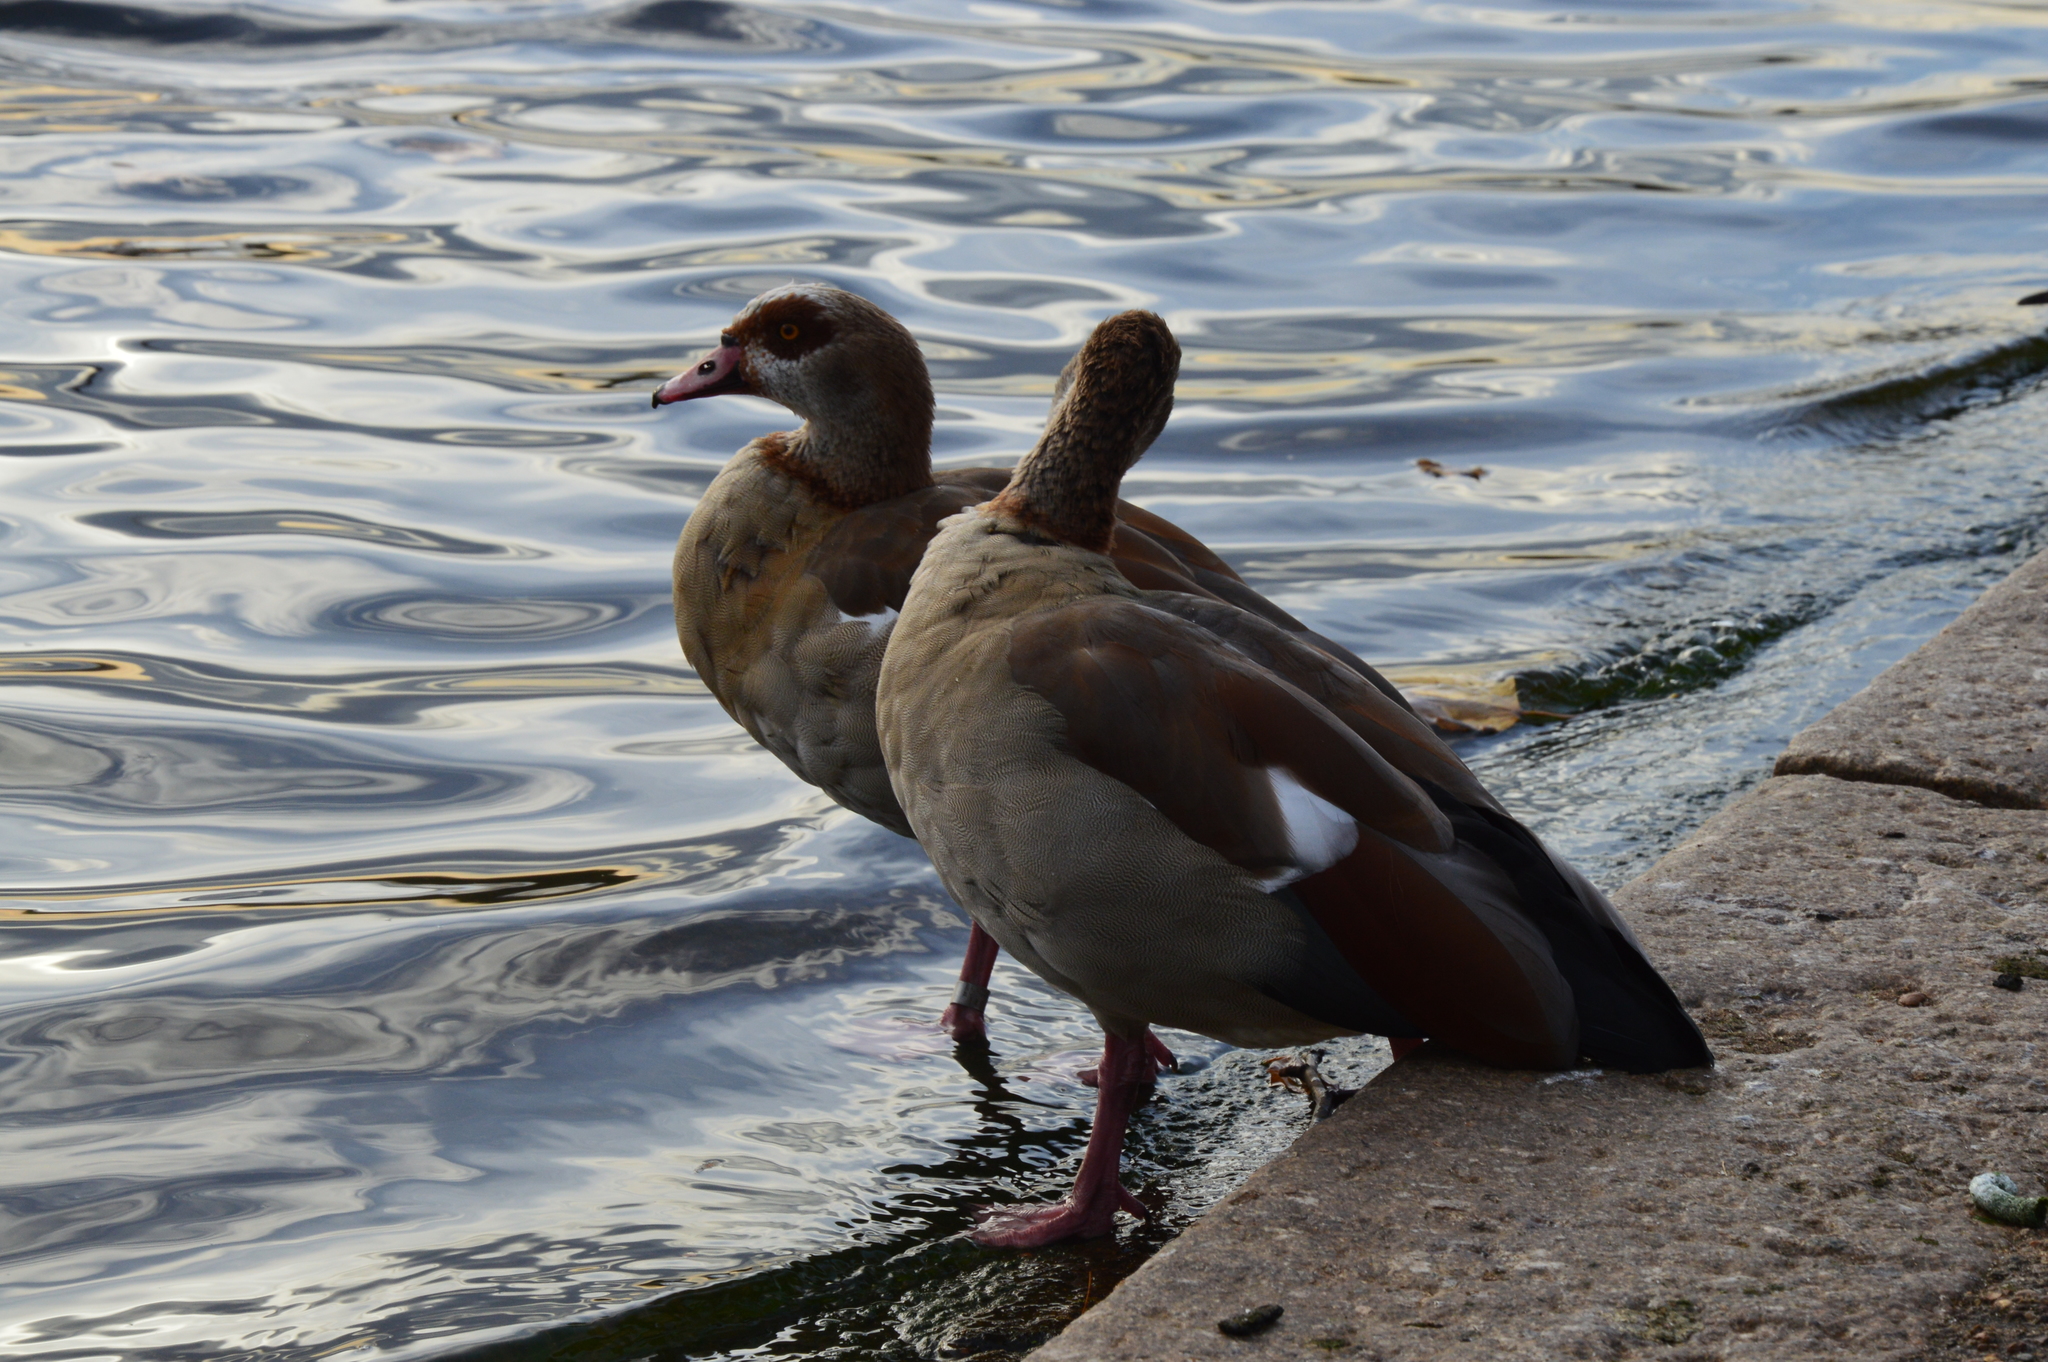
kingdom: Animalia
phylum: Chordata
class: Aves
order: Anseriformes
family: Anatidae
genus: Alopochen
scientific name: Alopochen aegyptiaca
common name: Egyptian goose
